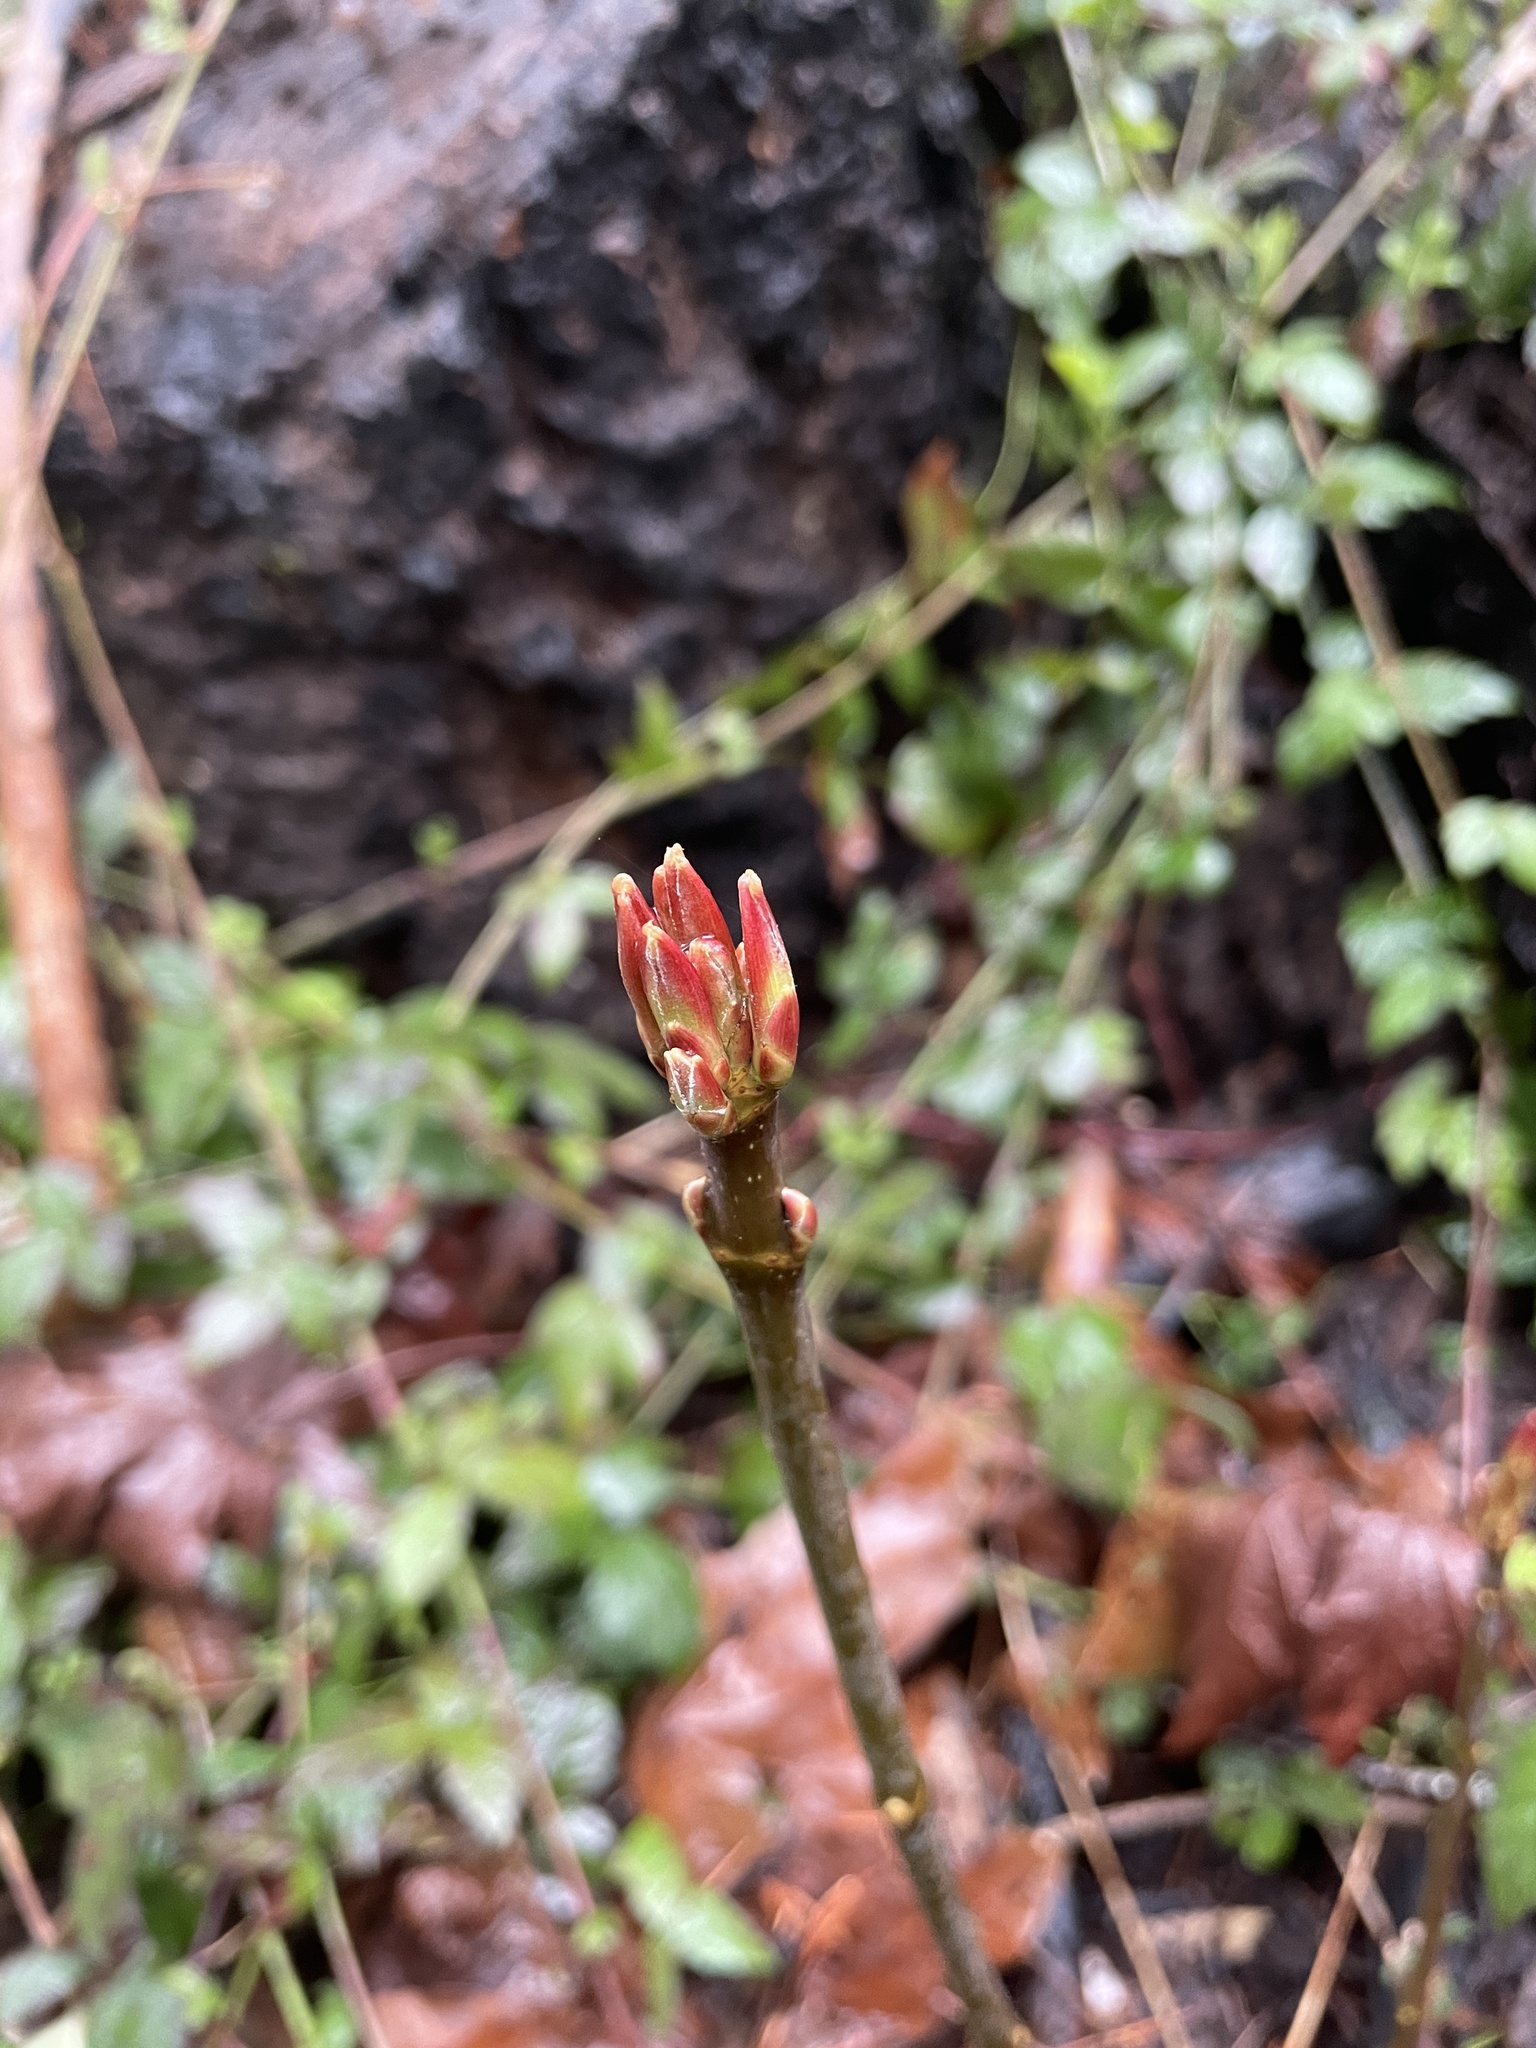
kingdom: Plantae
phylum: Tracheophyta
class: Magnoliopsida
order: Sapindales
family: Sapindaceae
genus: Acer
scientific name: Acer macrophyllum
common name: Oregon maple
